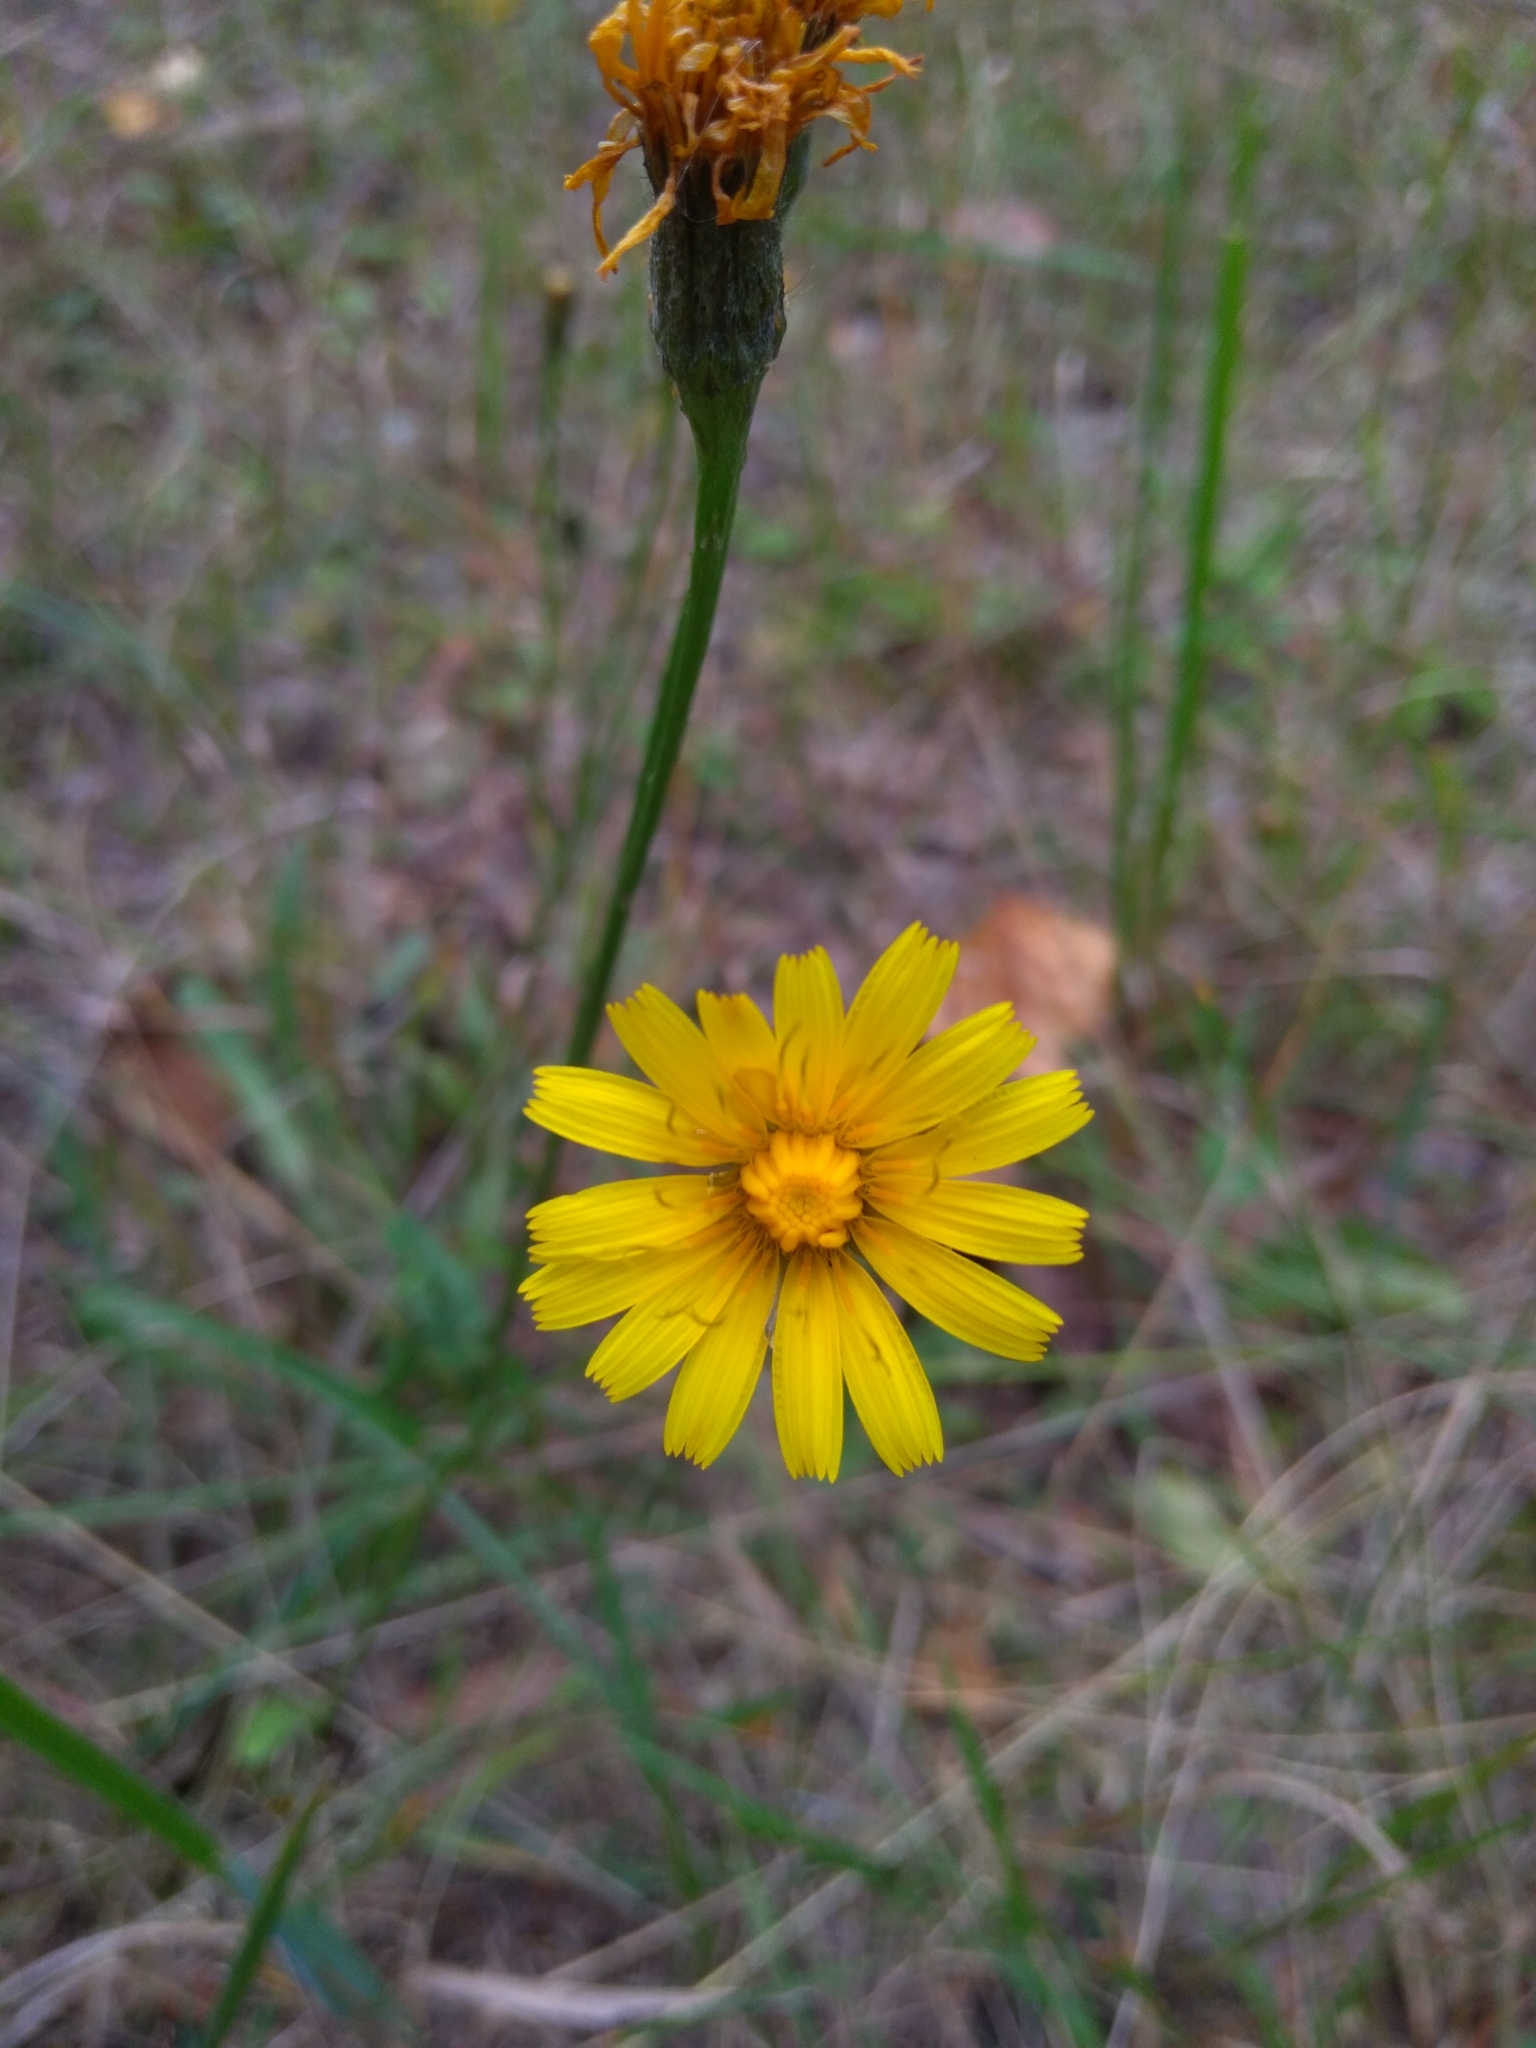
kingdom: Plantae
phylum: Tracheophyta
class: Magnoliopsida
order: Asterales
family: Asteraceae
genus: Scorzoneroides
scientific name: Scorzoneroides autumnalis
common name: Autumn hawkbit
